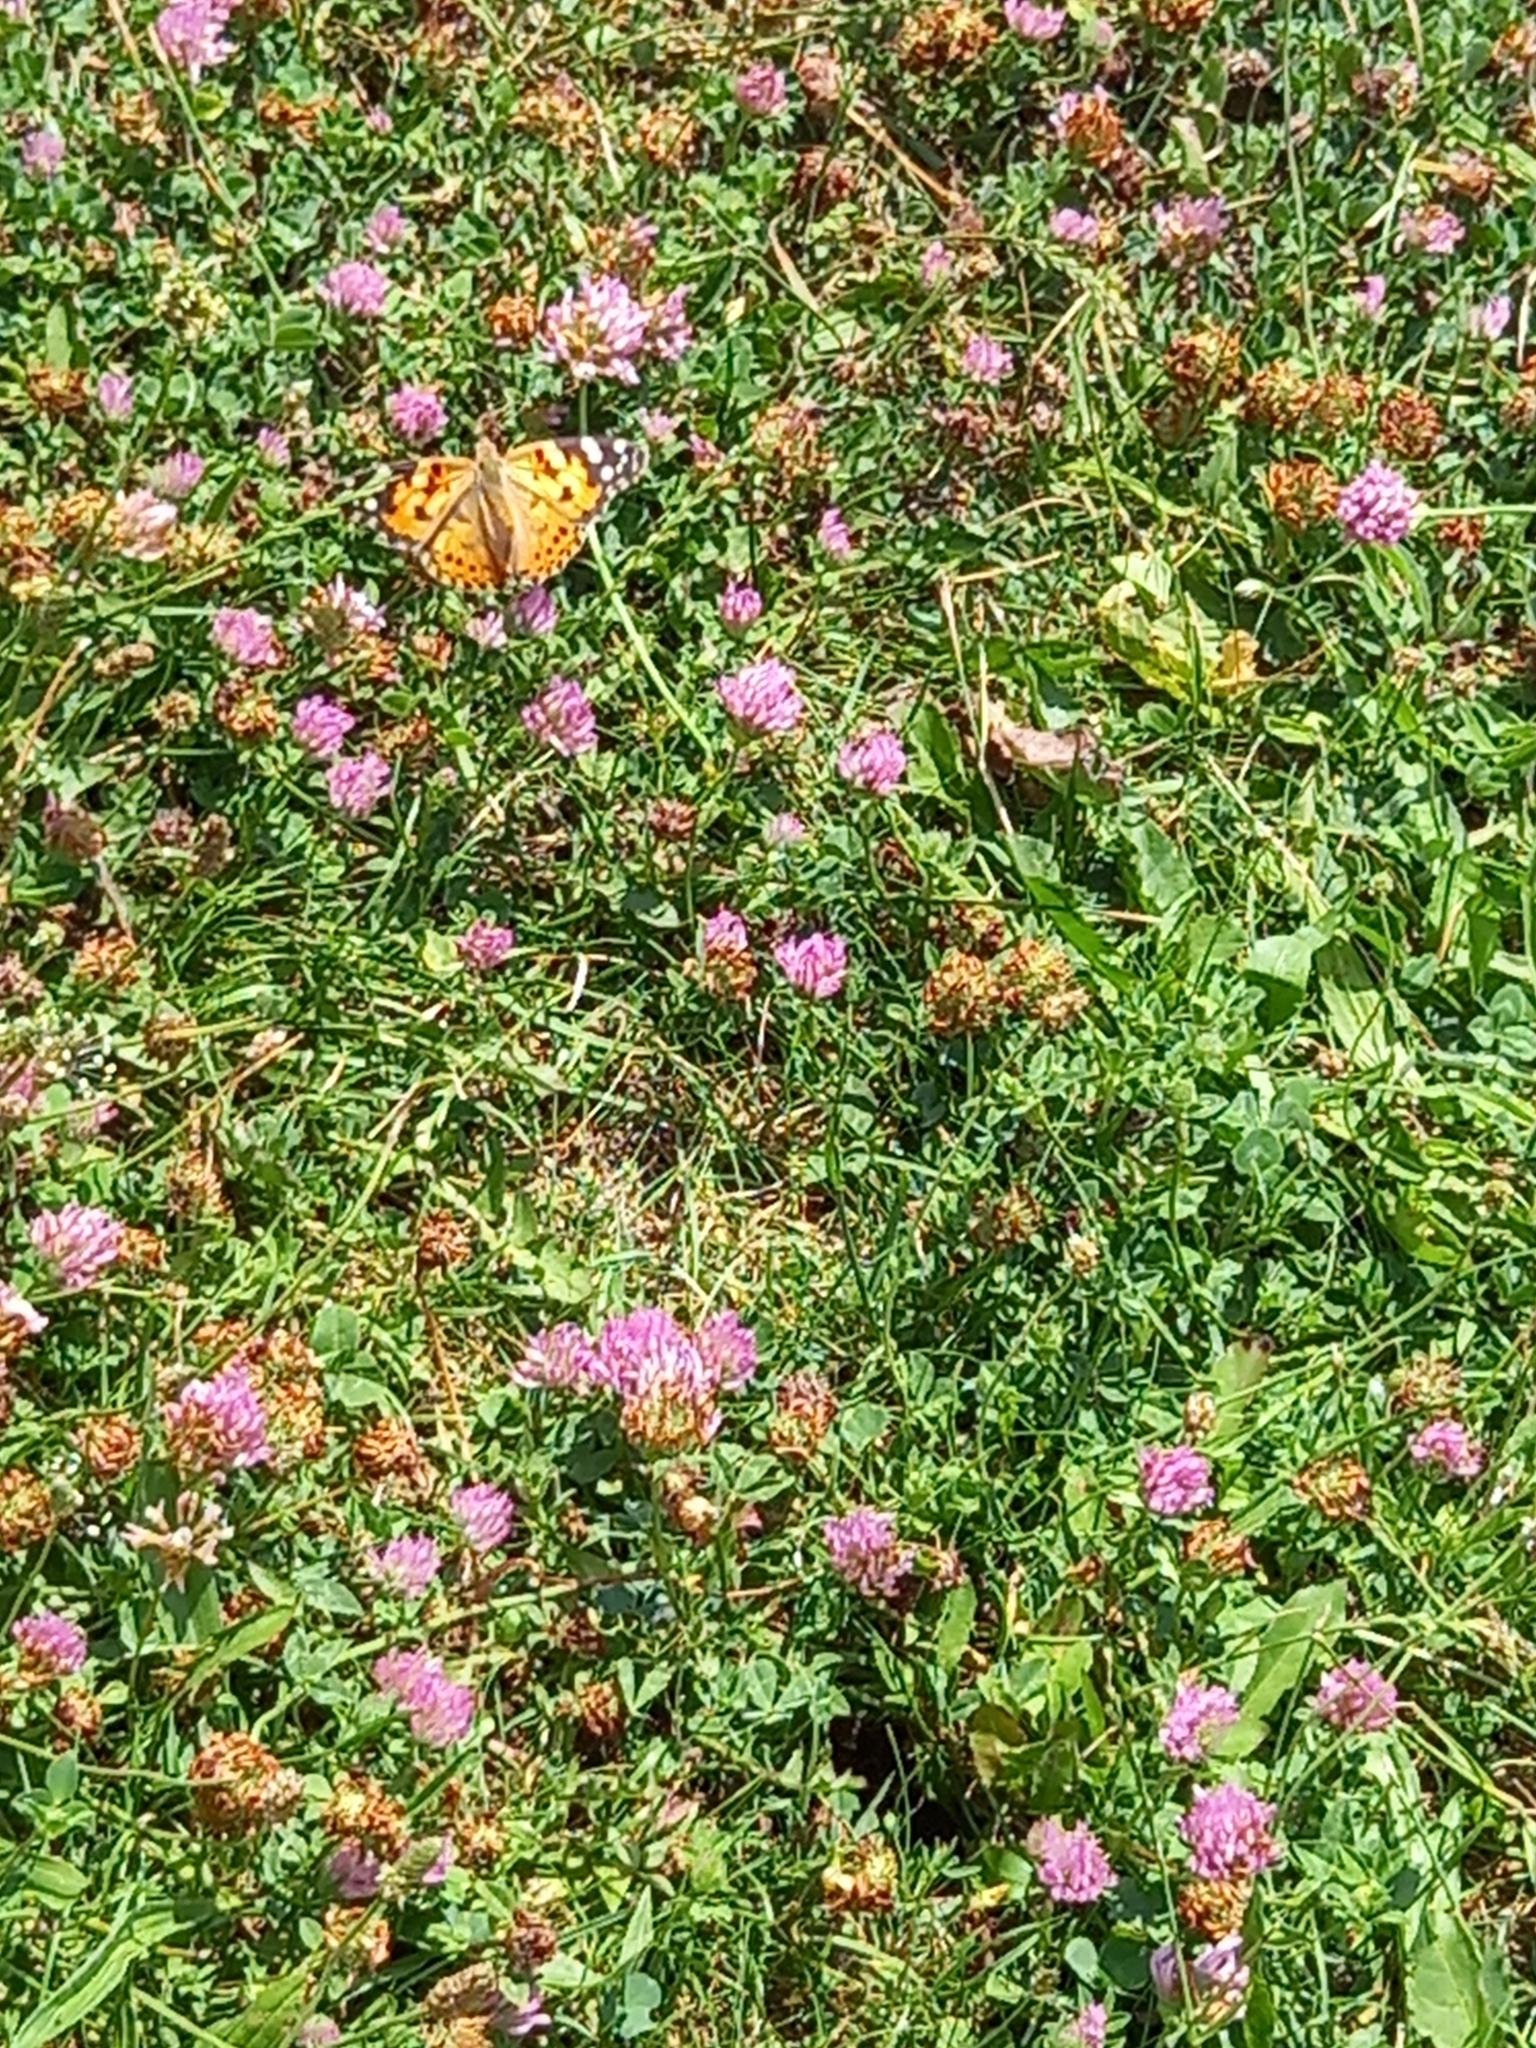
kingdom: Animalia
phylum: Arthropoda
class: Insecta
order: Lepidoptera
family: Nymphalidae
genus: Vanessa
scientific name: Vanessa cardui
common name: Painted lady
